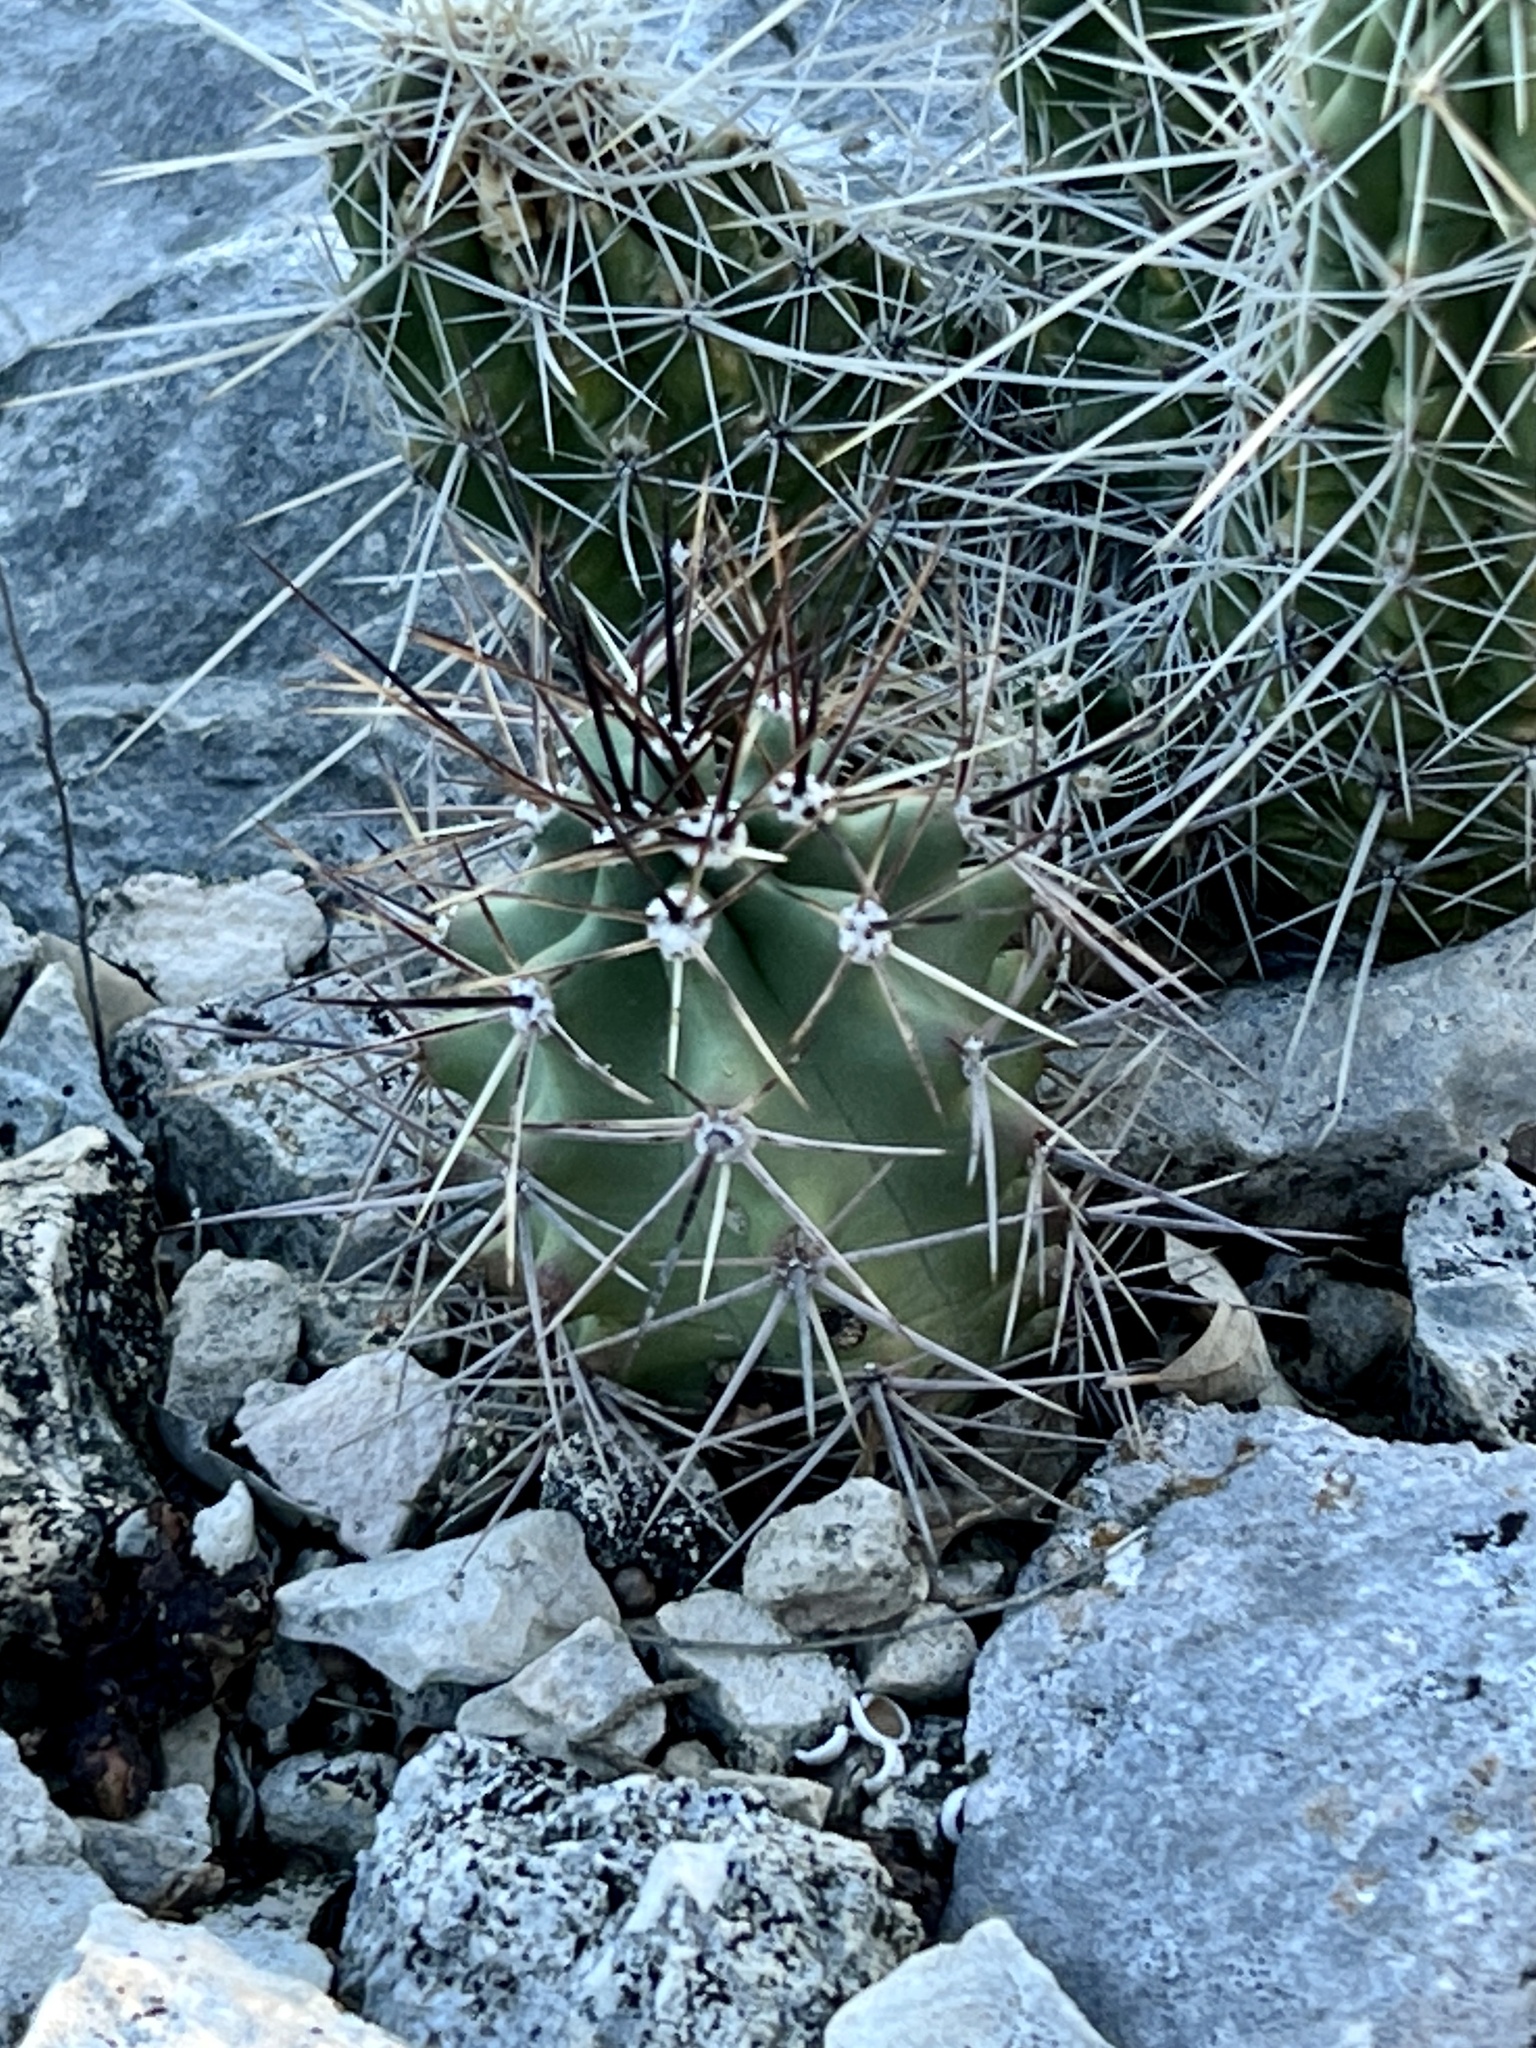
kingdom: Plantae
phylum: Tracheophyta
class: Magnoliopsida
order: Caryophyllales
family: Cactaceae
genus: Echinocereus
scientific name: Echinocereus coccineus
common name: Scarlet hedgehog cactus
